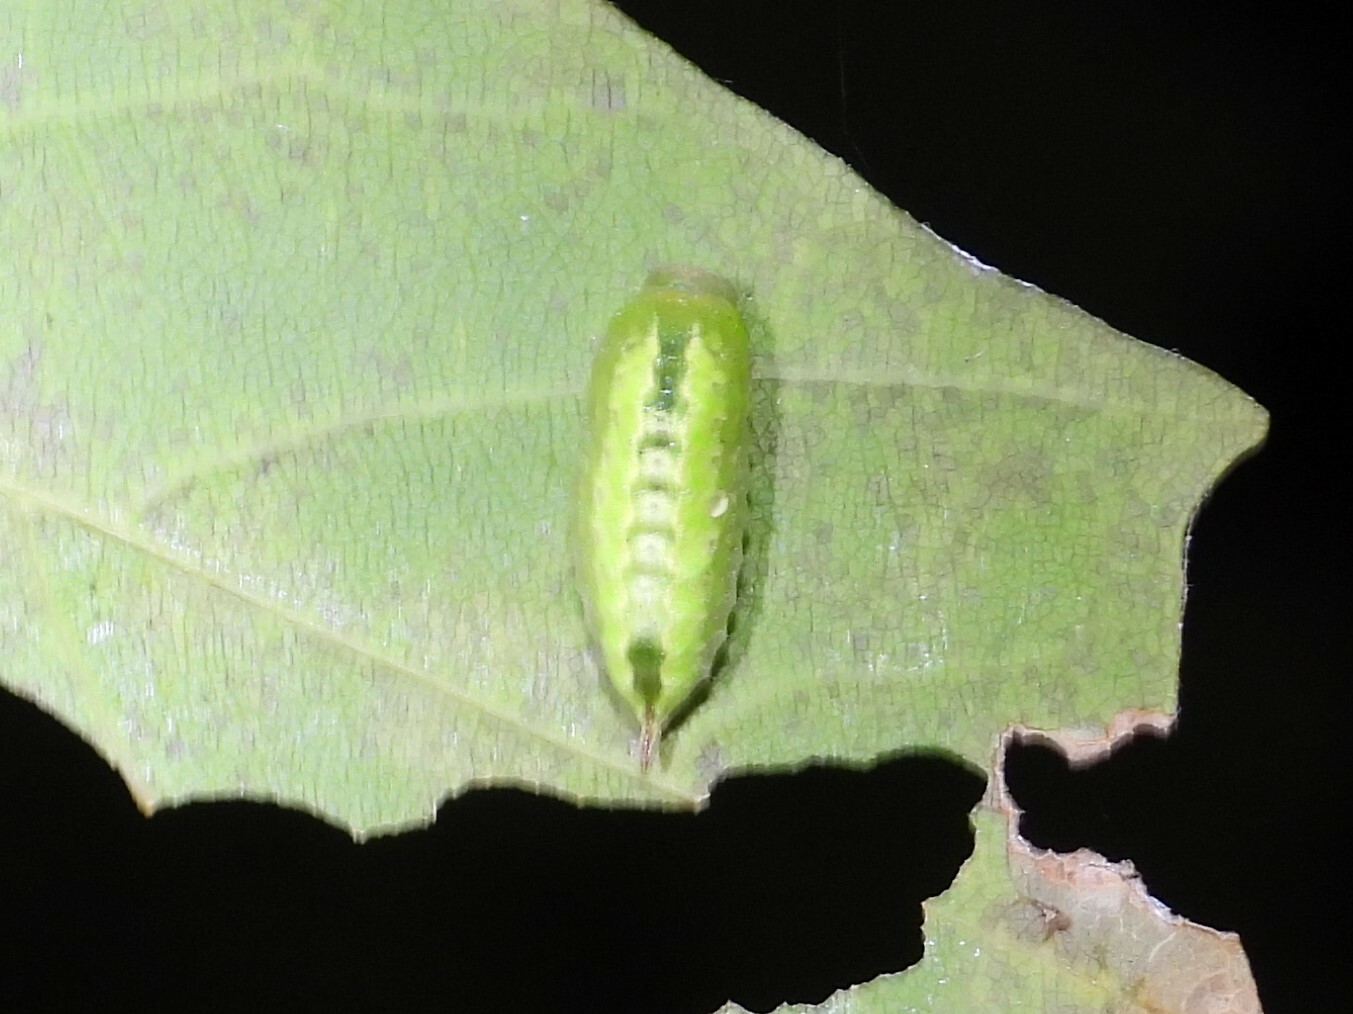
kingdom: Animalia
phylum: Arthropoda
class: Insecta
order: Lepidoptera
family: Limacodidae
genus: Packardia
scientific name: Packardia elegans
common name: Elegant tailed slug moth
